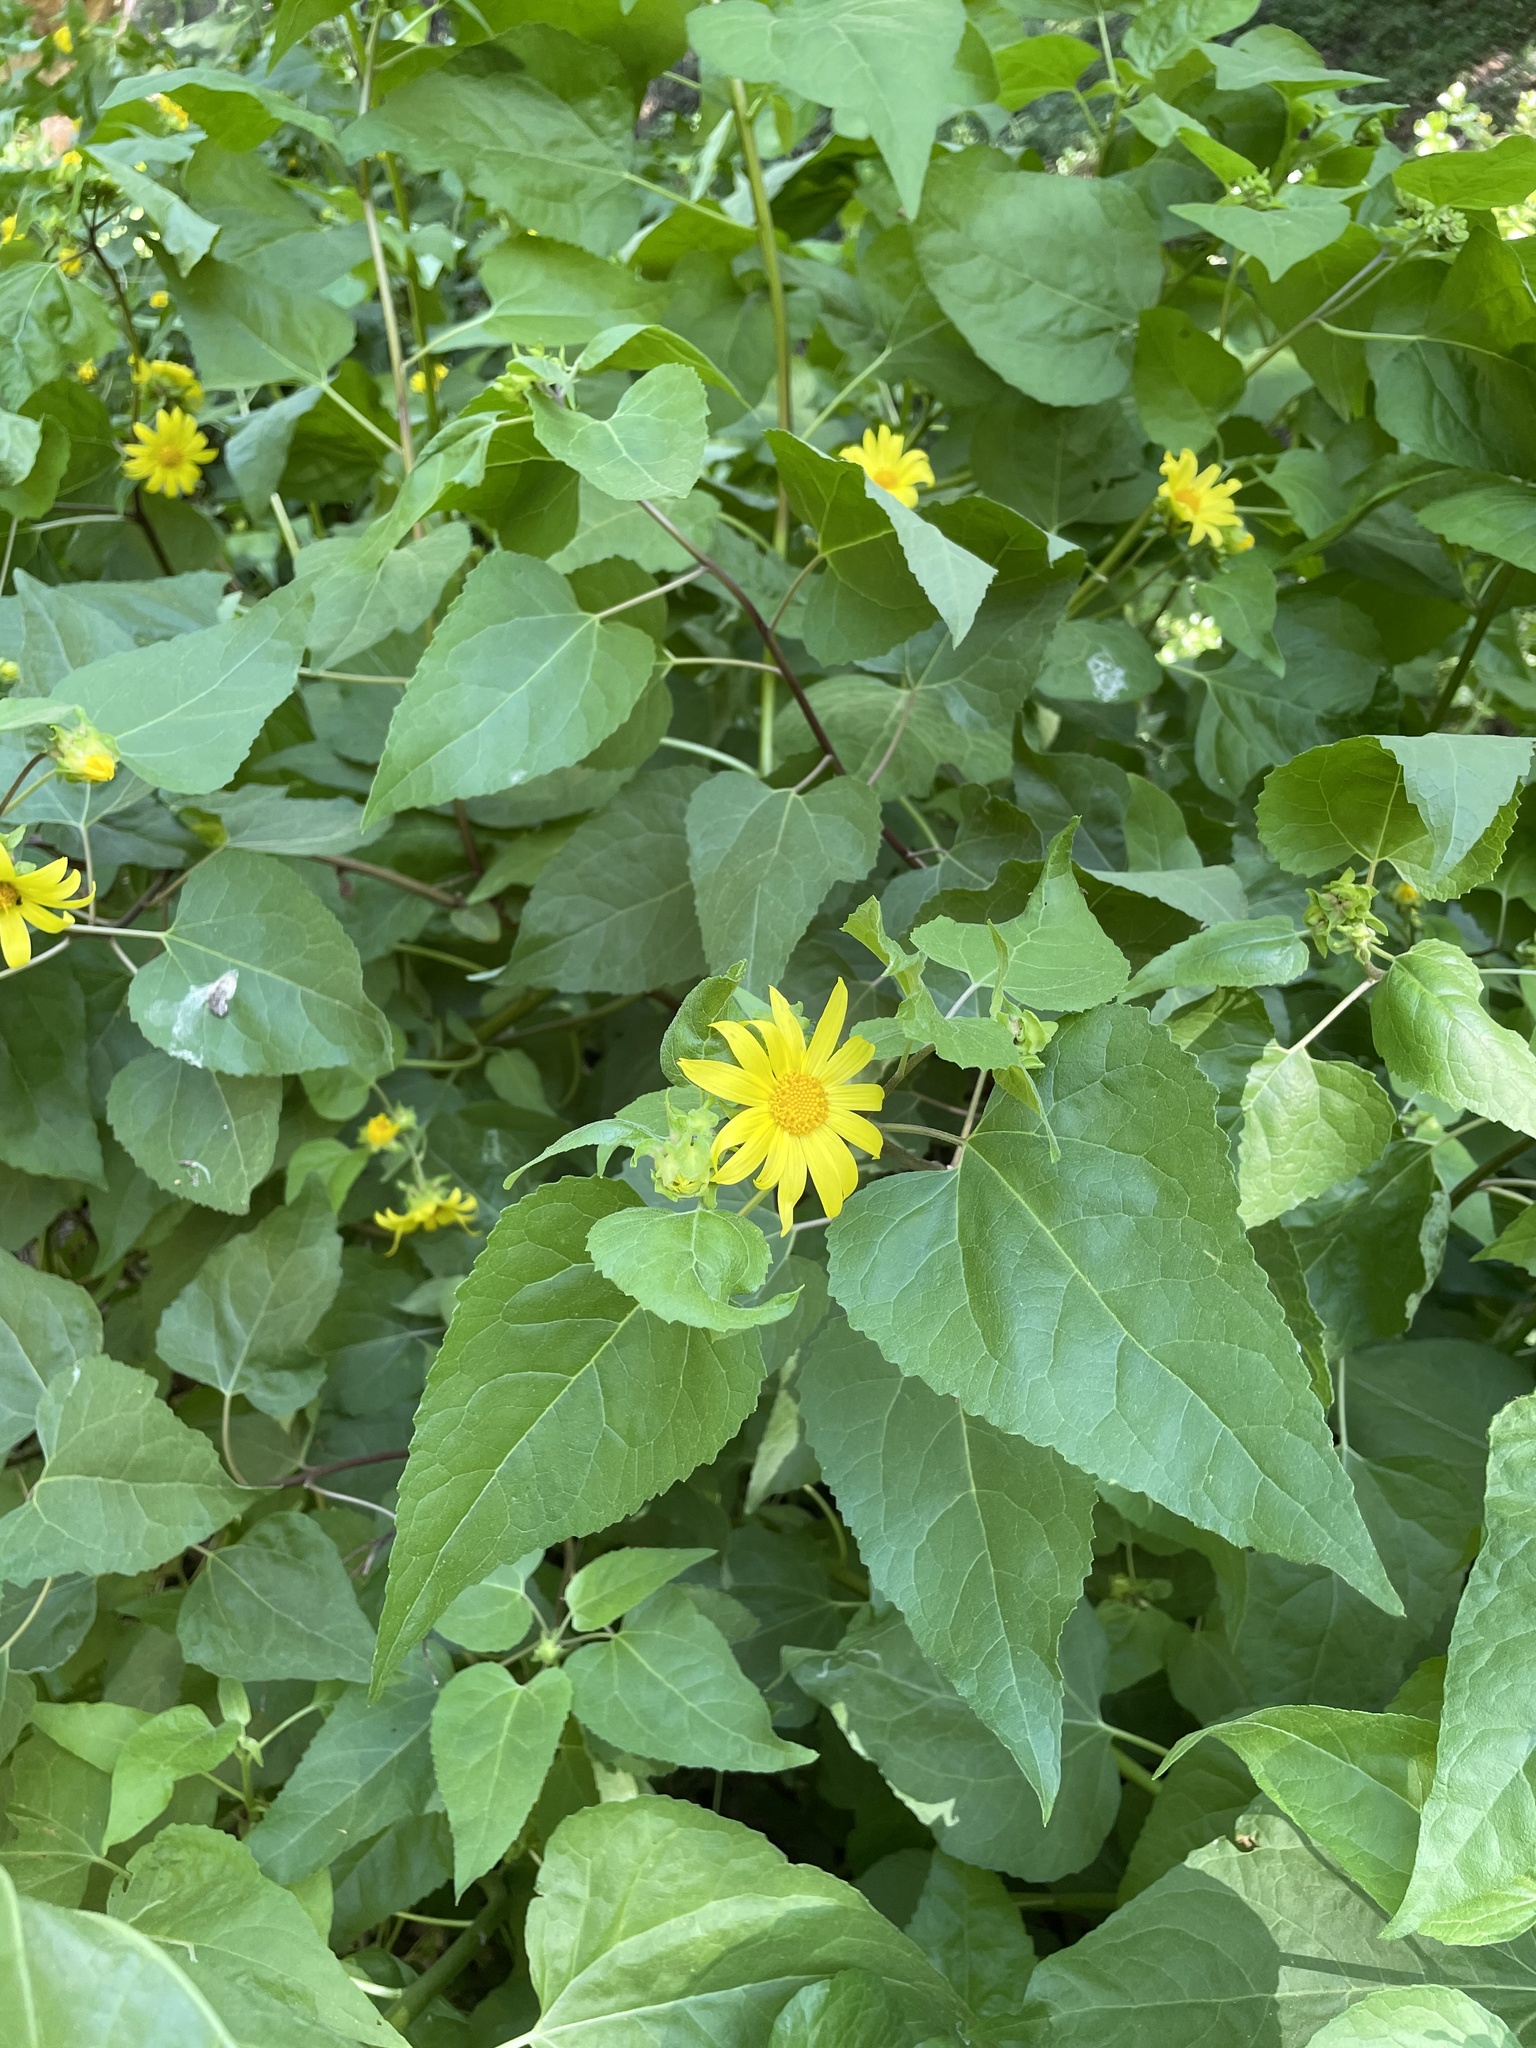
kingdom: Plantae
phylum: Tracheophyta
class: Magnoliopsida
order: Asterales
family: Asteraceae
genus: Venegasia
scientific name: Venegasia carpesioides
